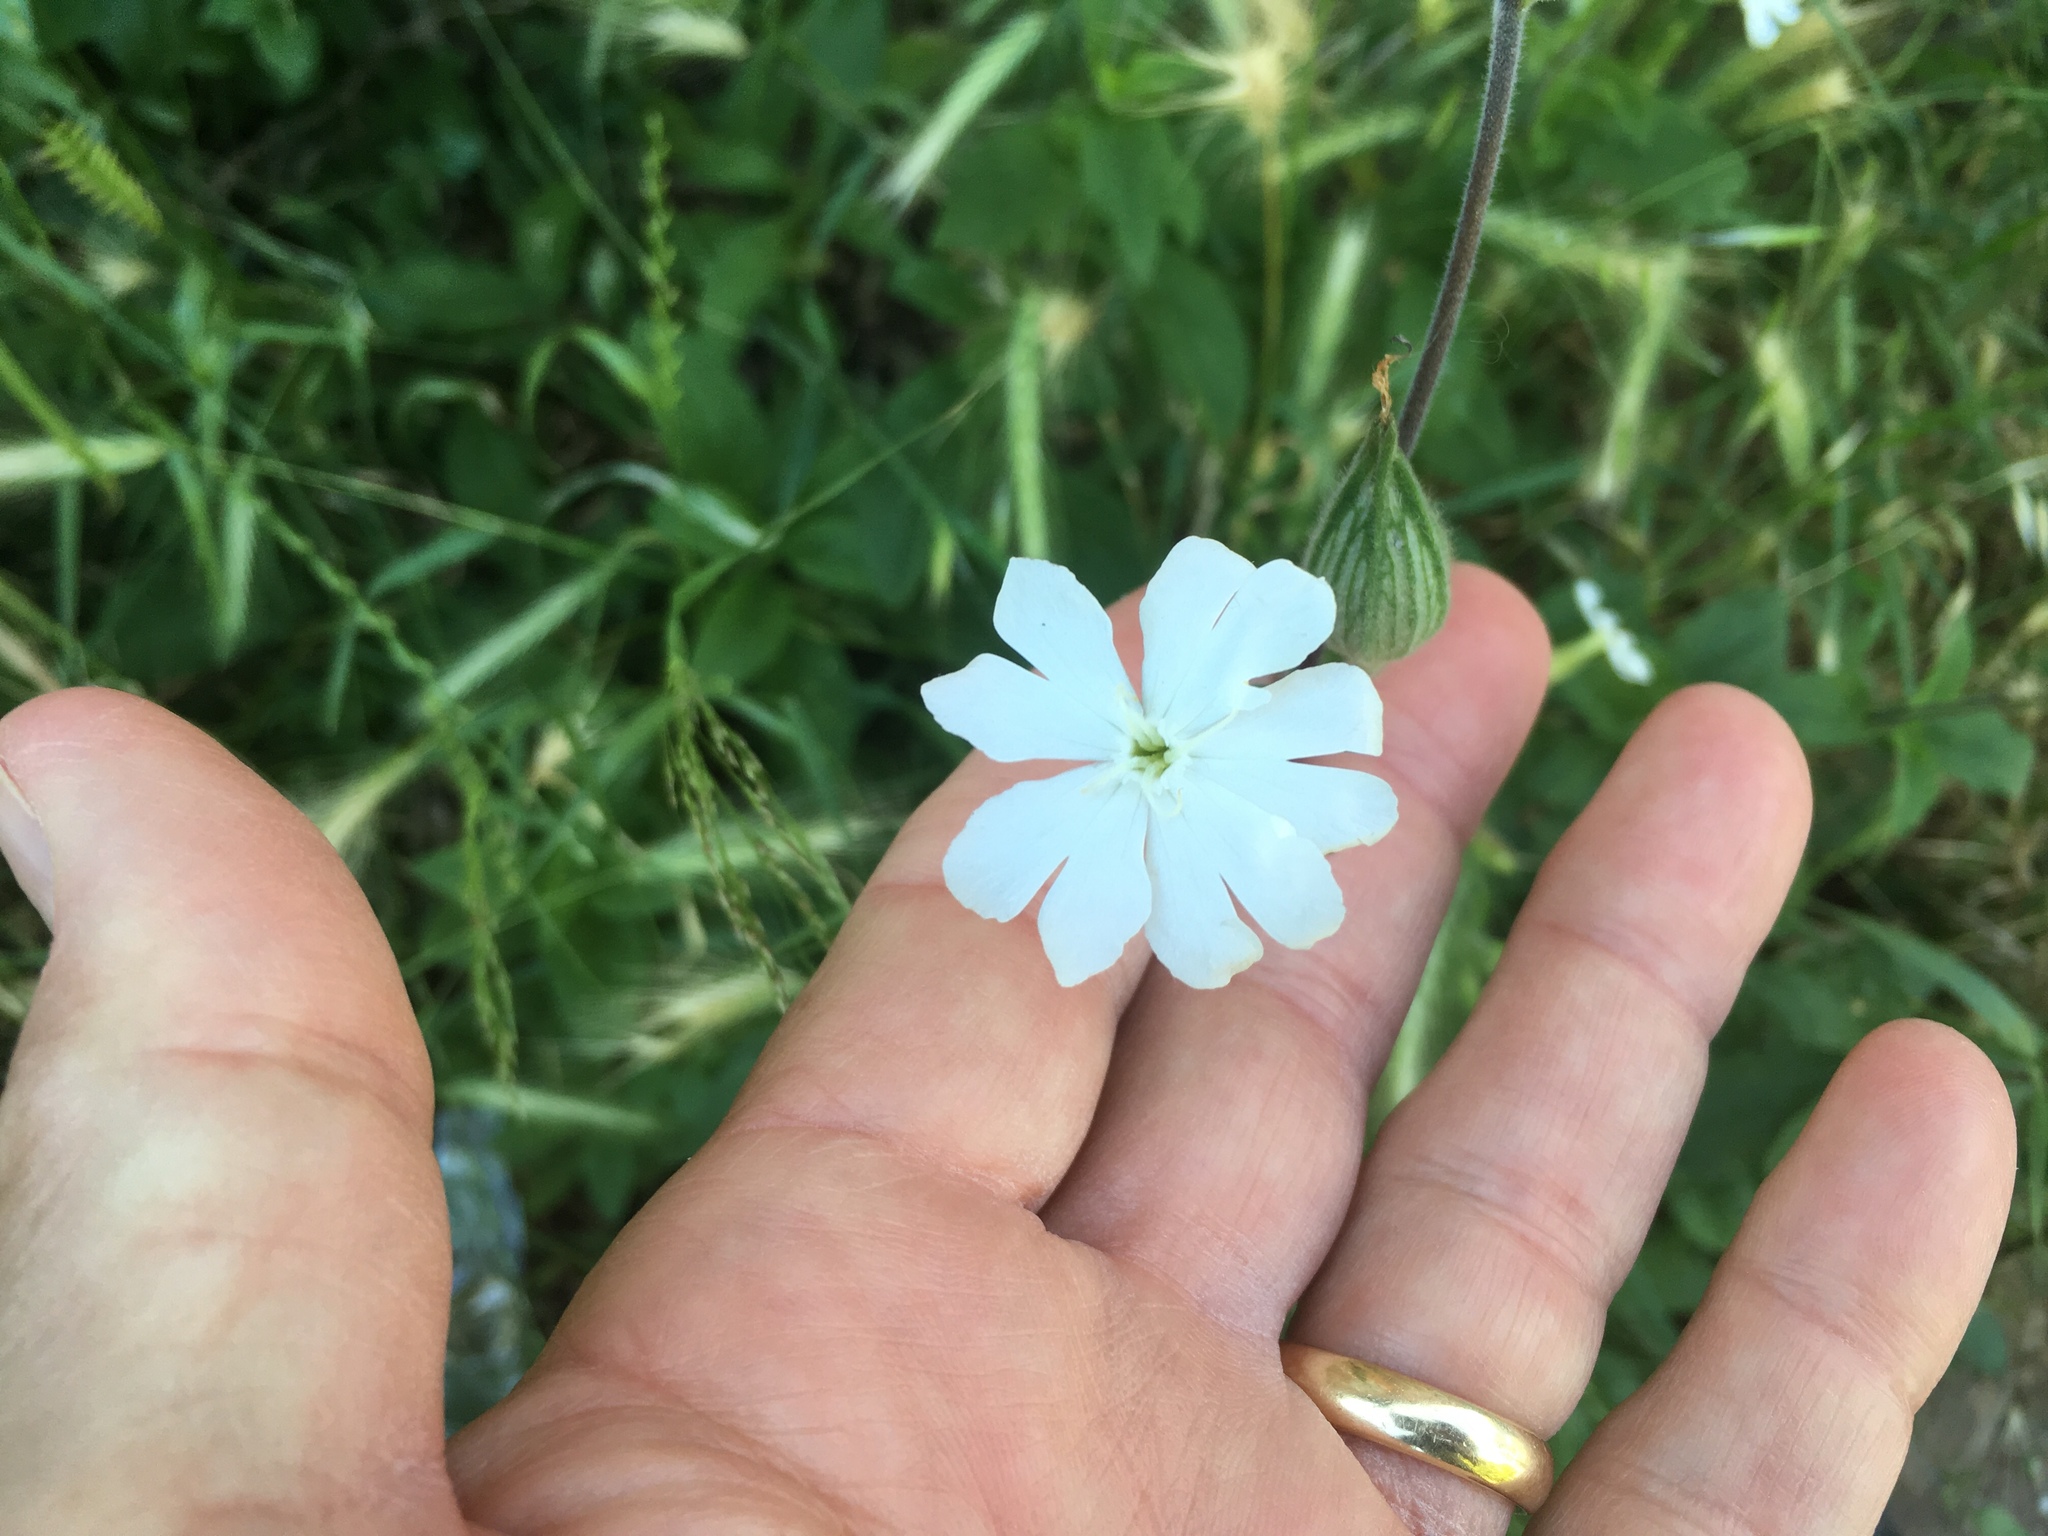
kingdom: Plantae
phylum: Tracheophyta
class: Magnoliopsida
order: Caryophyllales
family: Caryophyllaceae
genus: Silene
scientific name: Silene latifolia
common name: White campion
